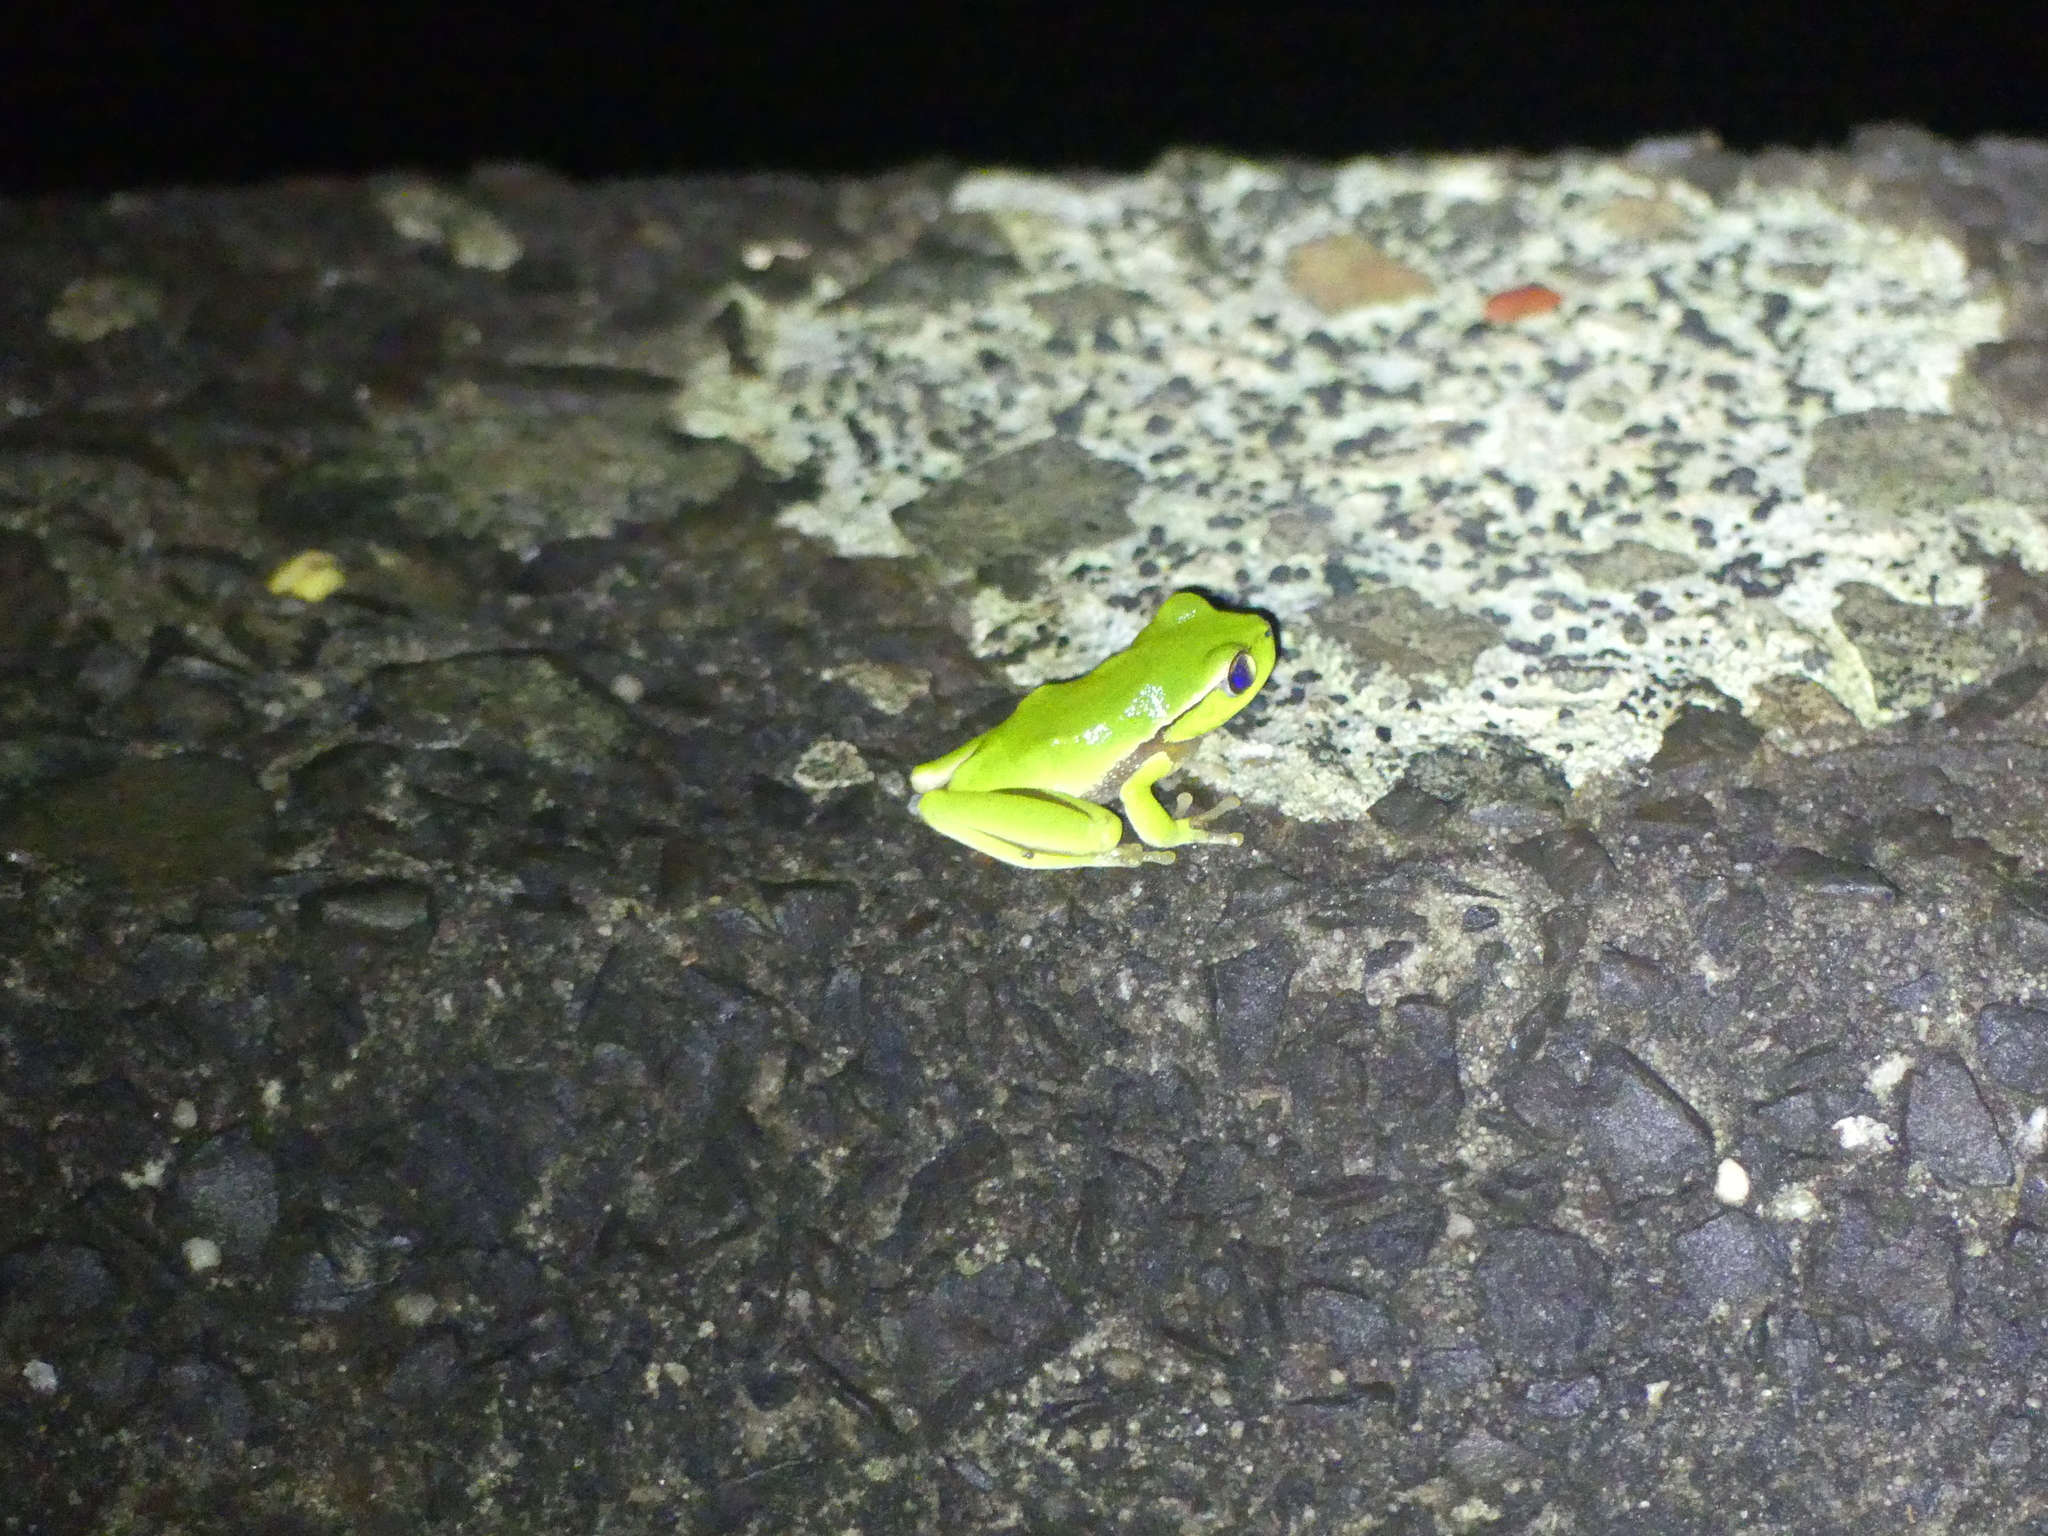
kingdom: Animalia
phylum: Chordata
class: Amphibia
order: Anura
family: Pelodryadidae
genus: Ranoidea
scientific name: Ranoidea phyllochroa
